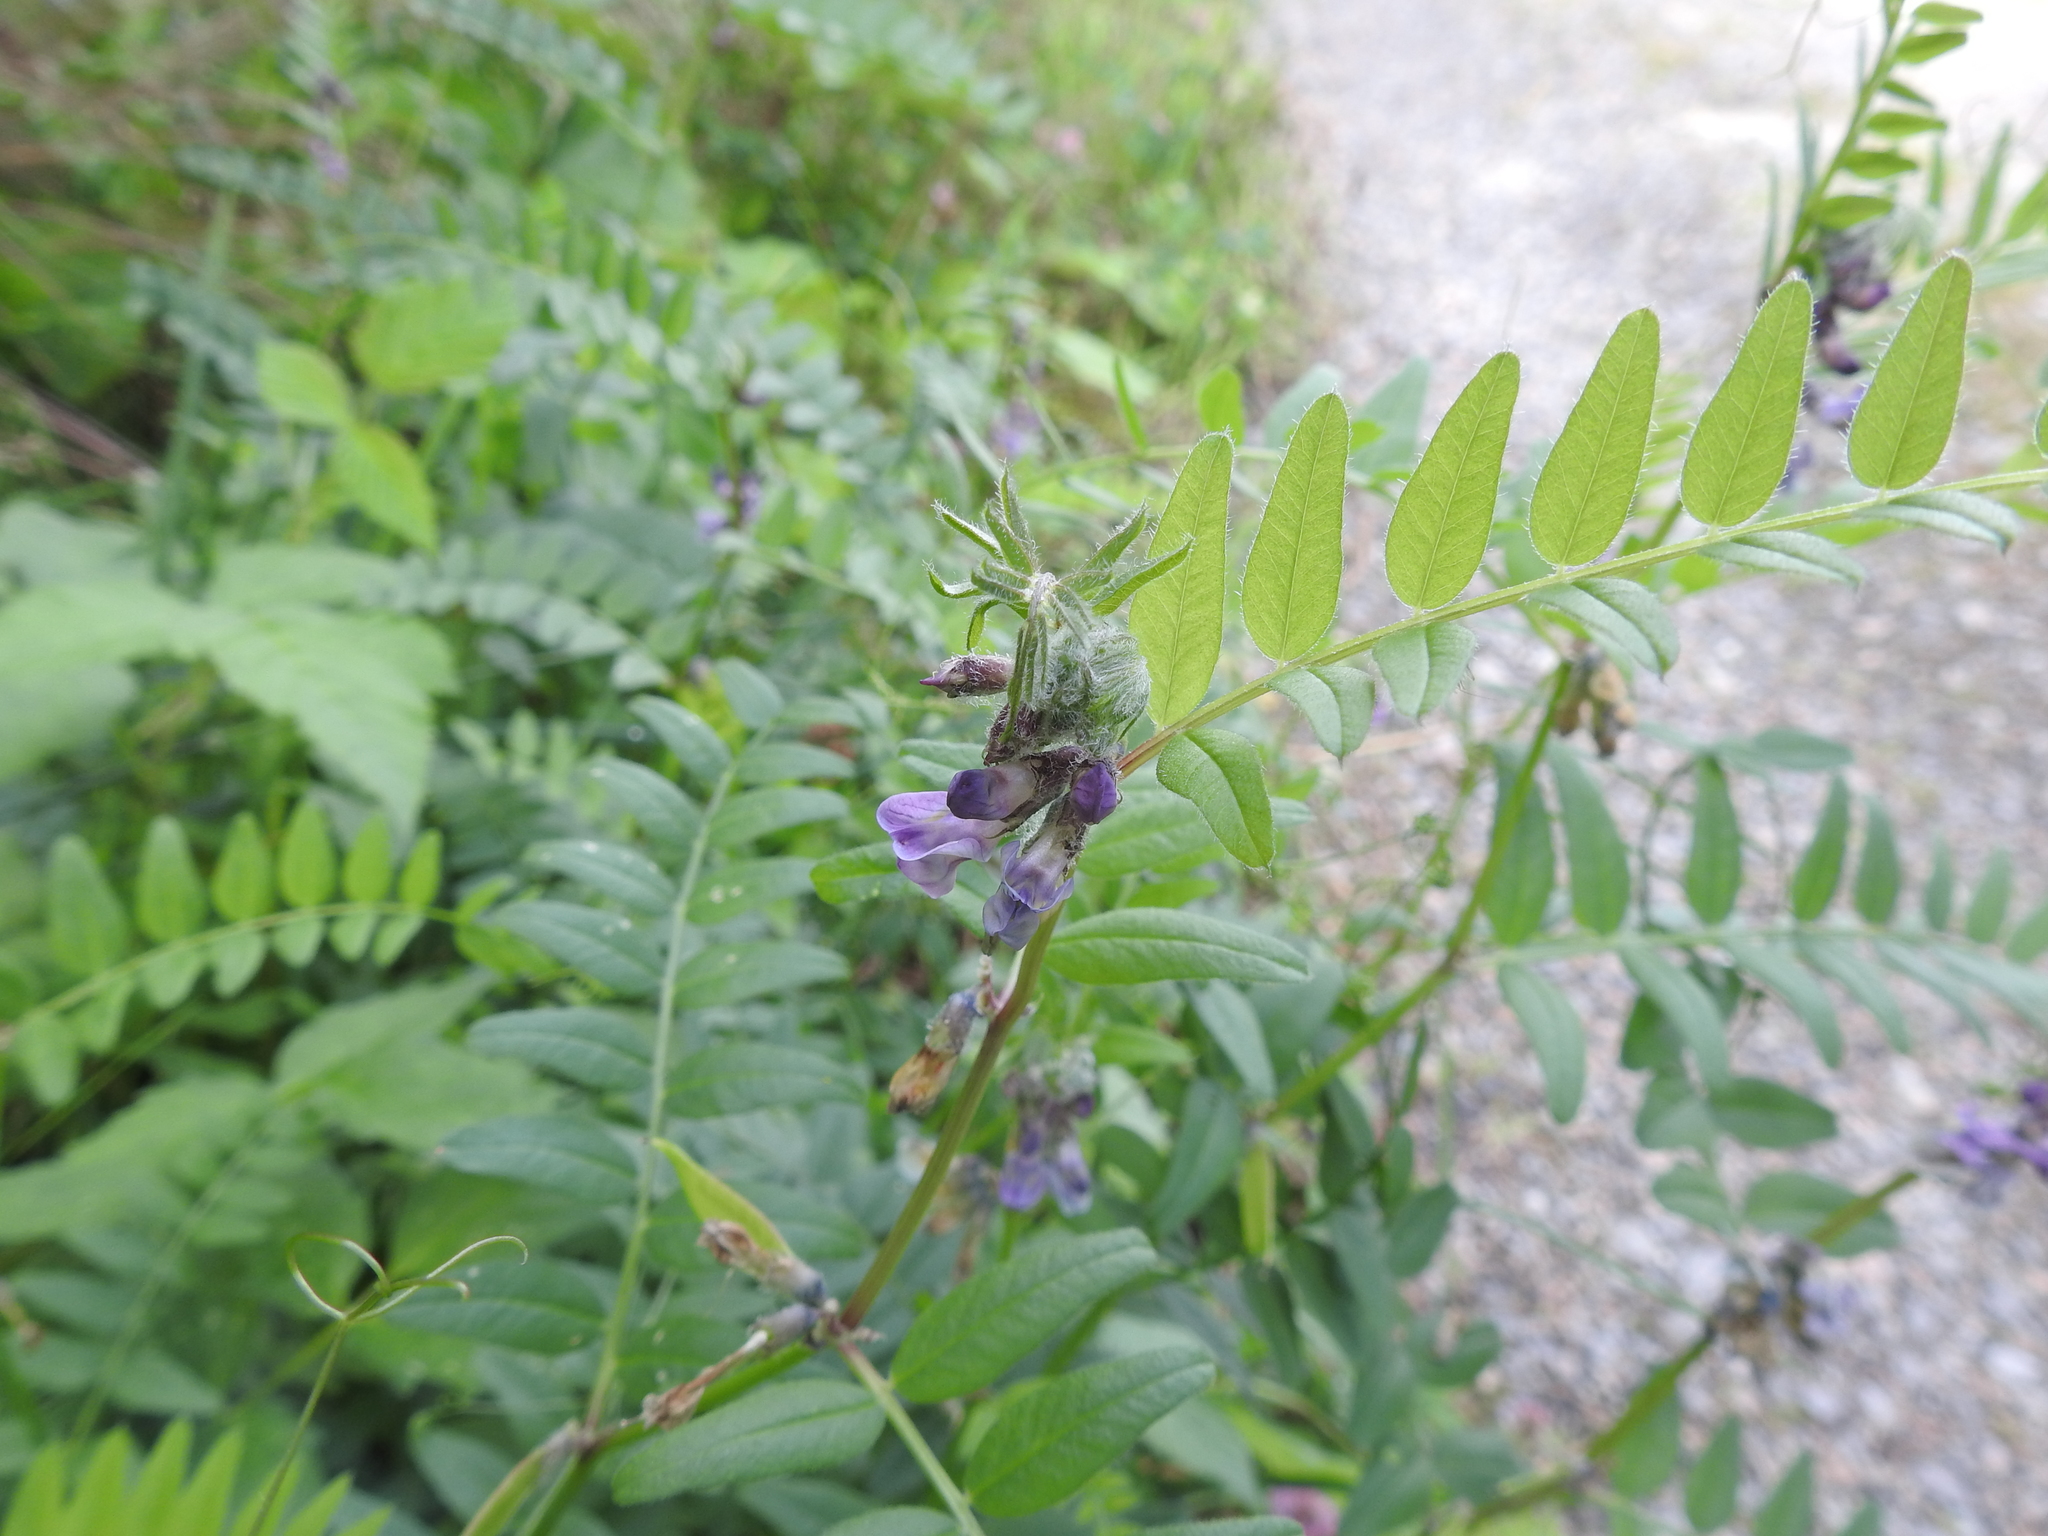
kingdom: Plantae
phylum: Tracheophyta
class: Magnoliopsida
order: Fabales
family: Fabaceae
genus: Vicia
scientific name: Vicia sepium
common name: Bush vetch
